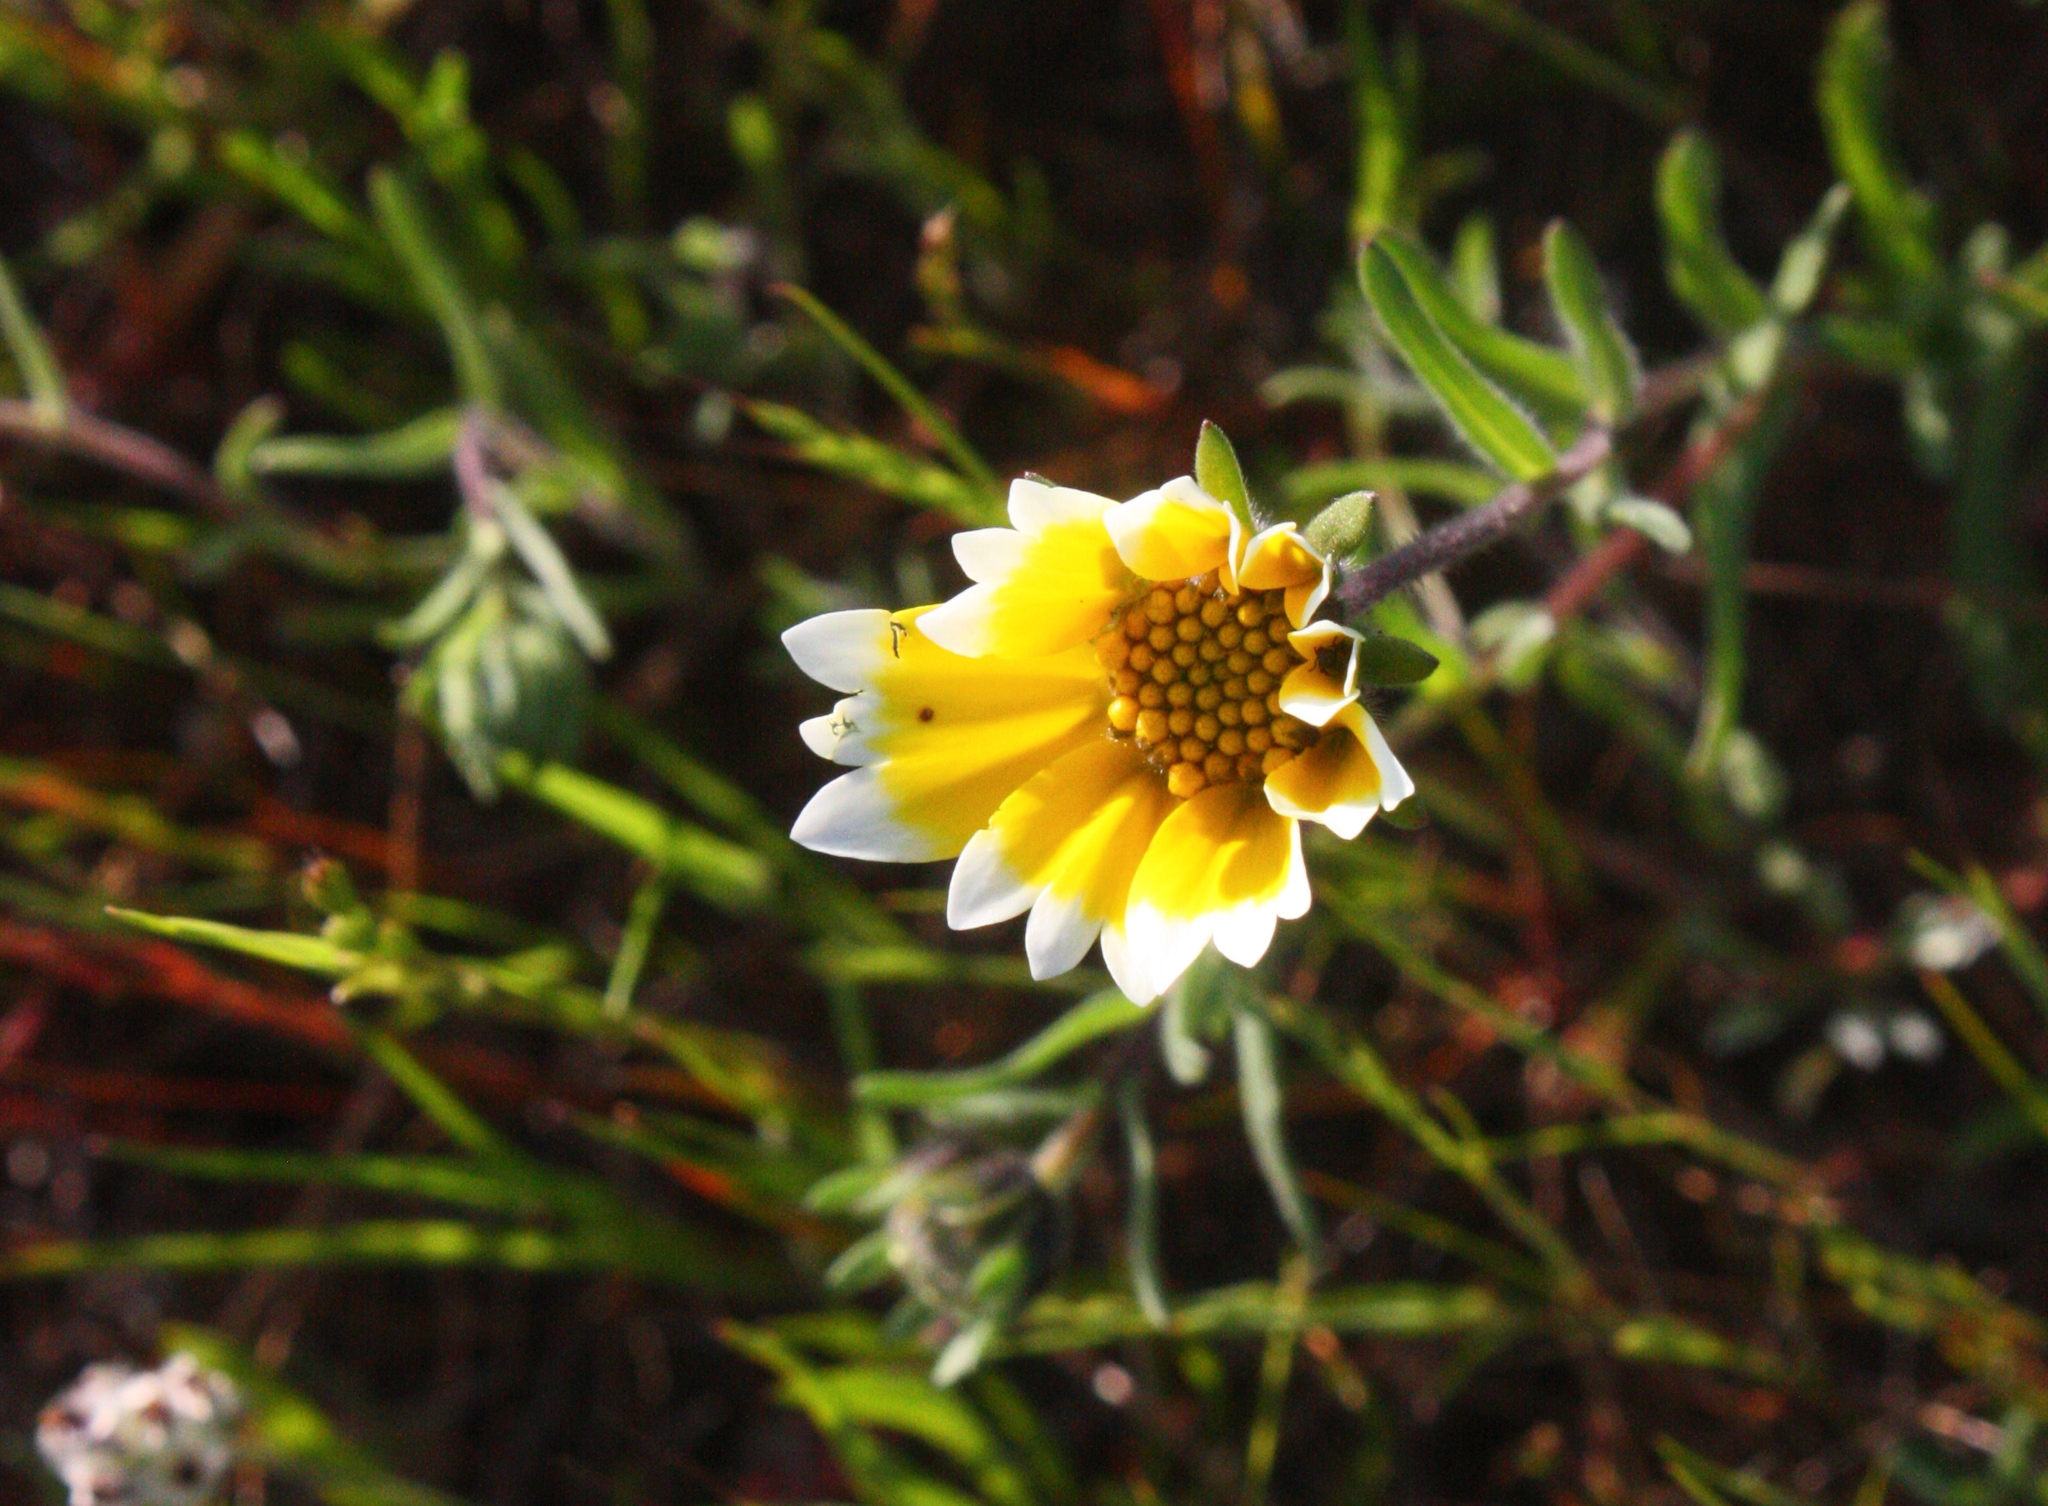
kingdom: Plantae
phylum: Tracheophyta
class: Magnoliopsida
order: Asterales
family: Asteraceae
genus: Layia
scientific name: Layia platyglossa
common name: Tidy-tips
